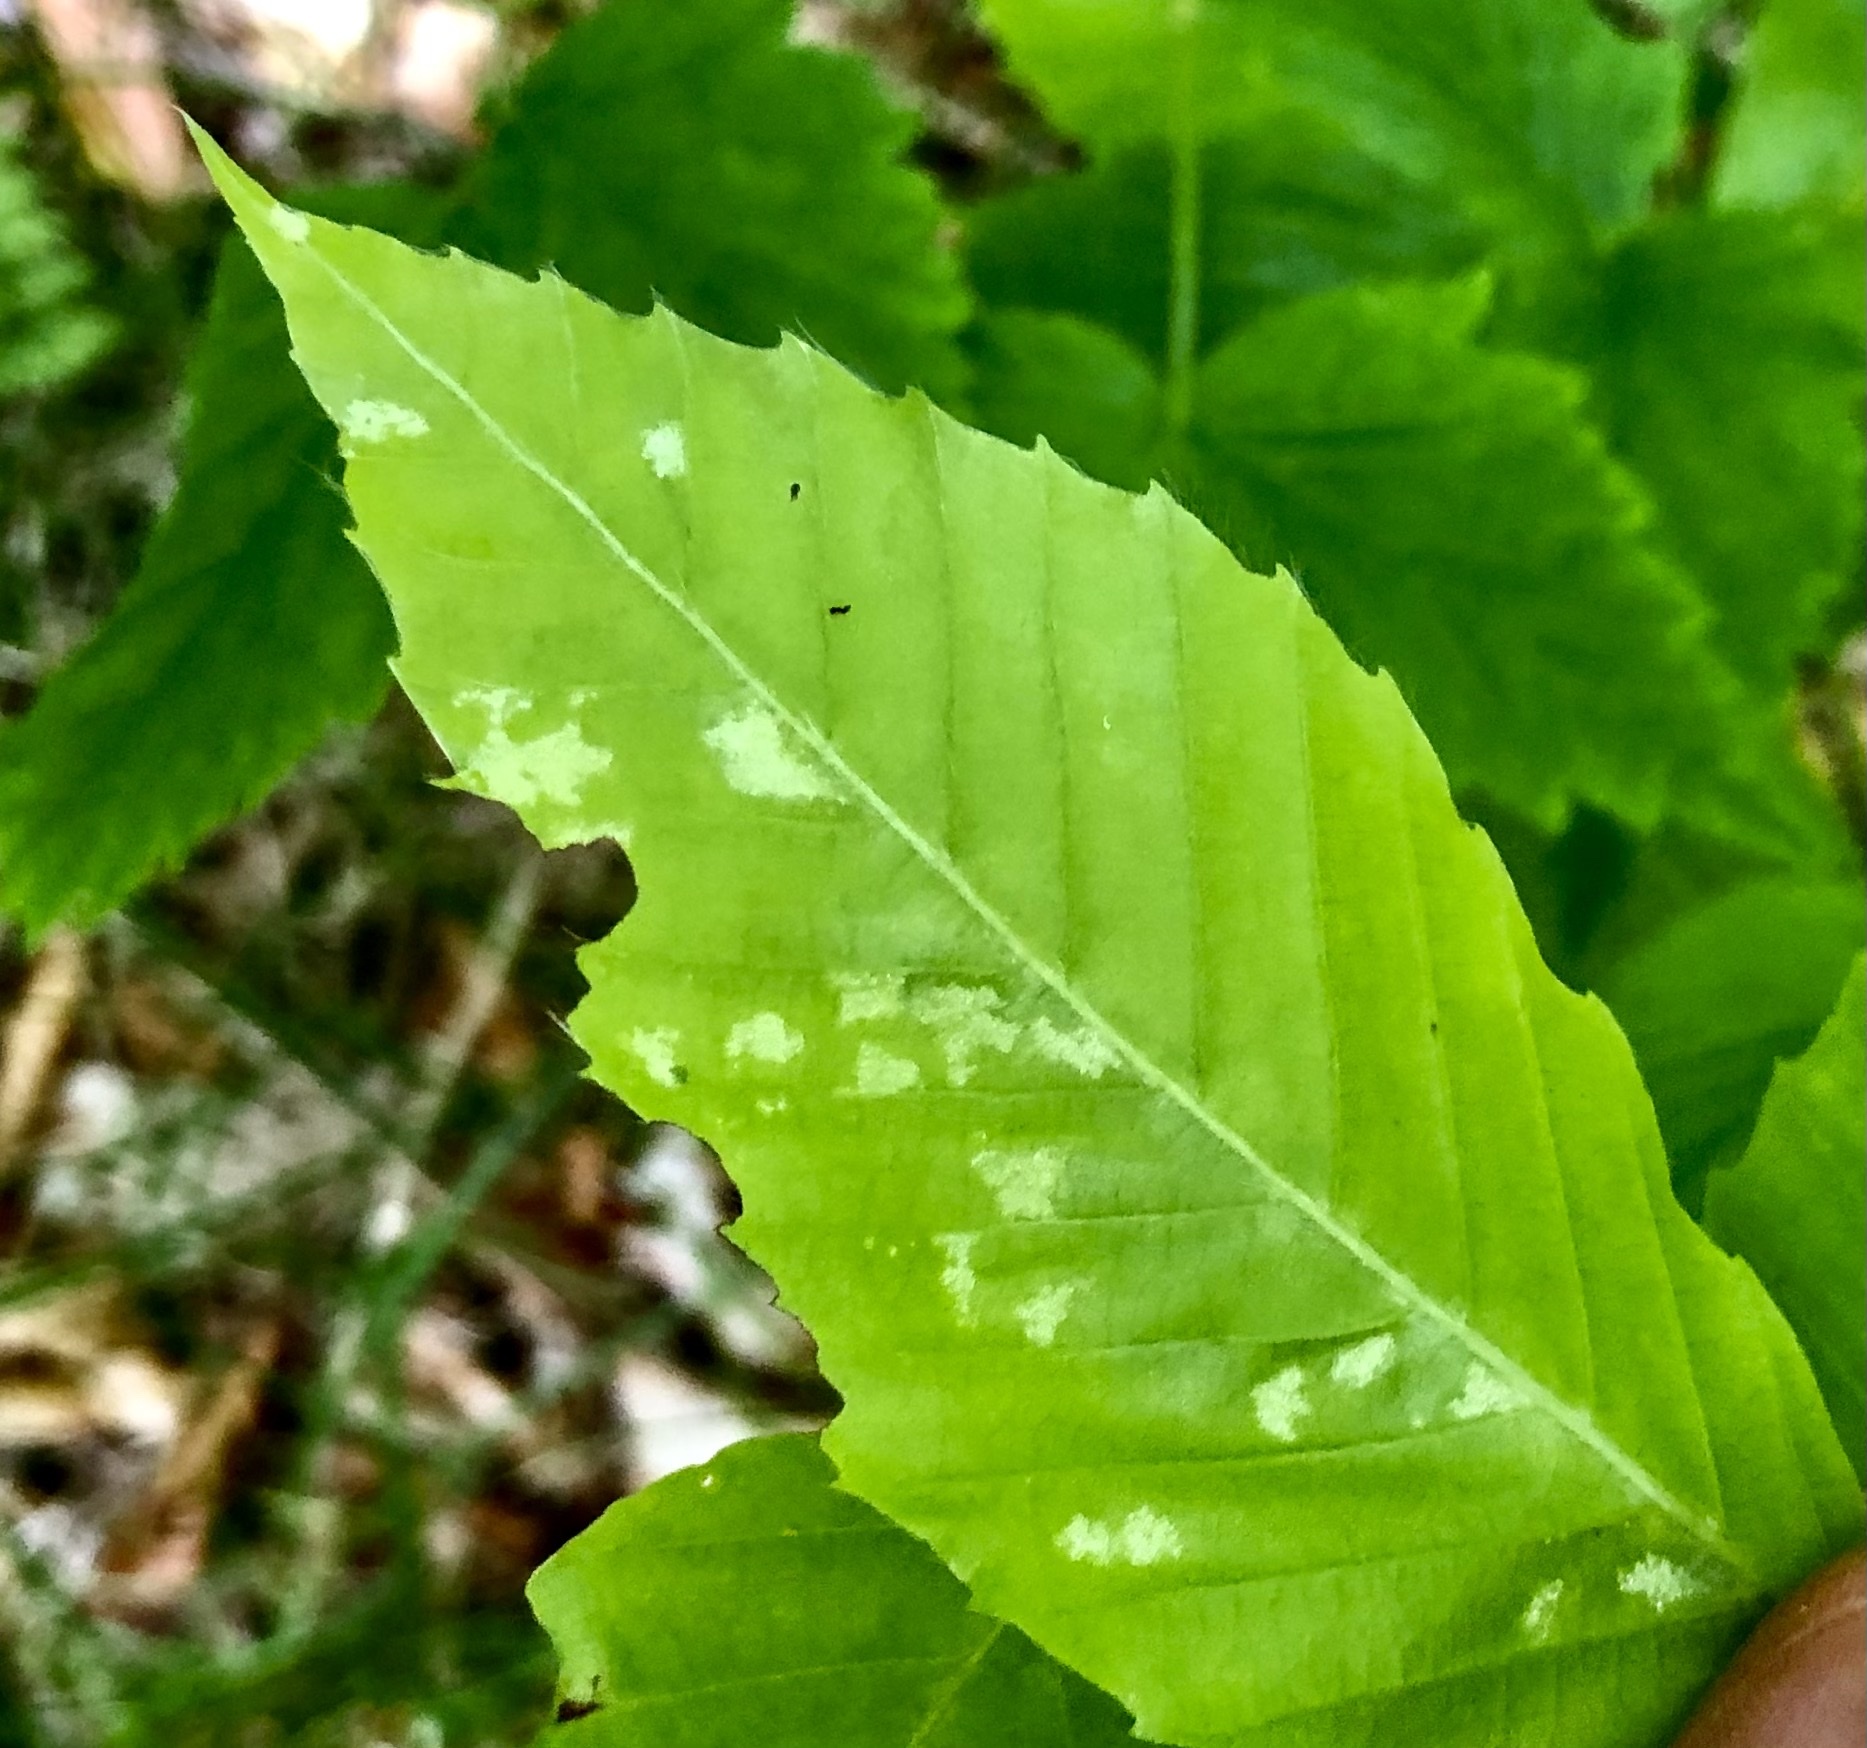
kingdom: Animalia
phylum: Arthropoda
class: Arachnida
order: Trombidiformes
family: Eriophyidae
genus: Acalitus
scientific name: Acalitus
